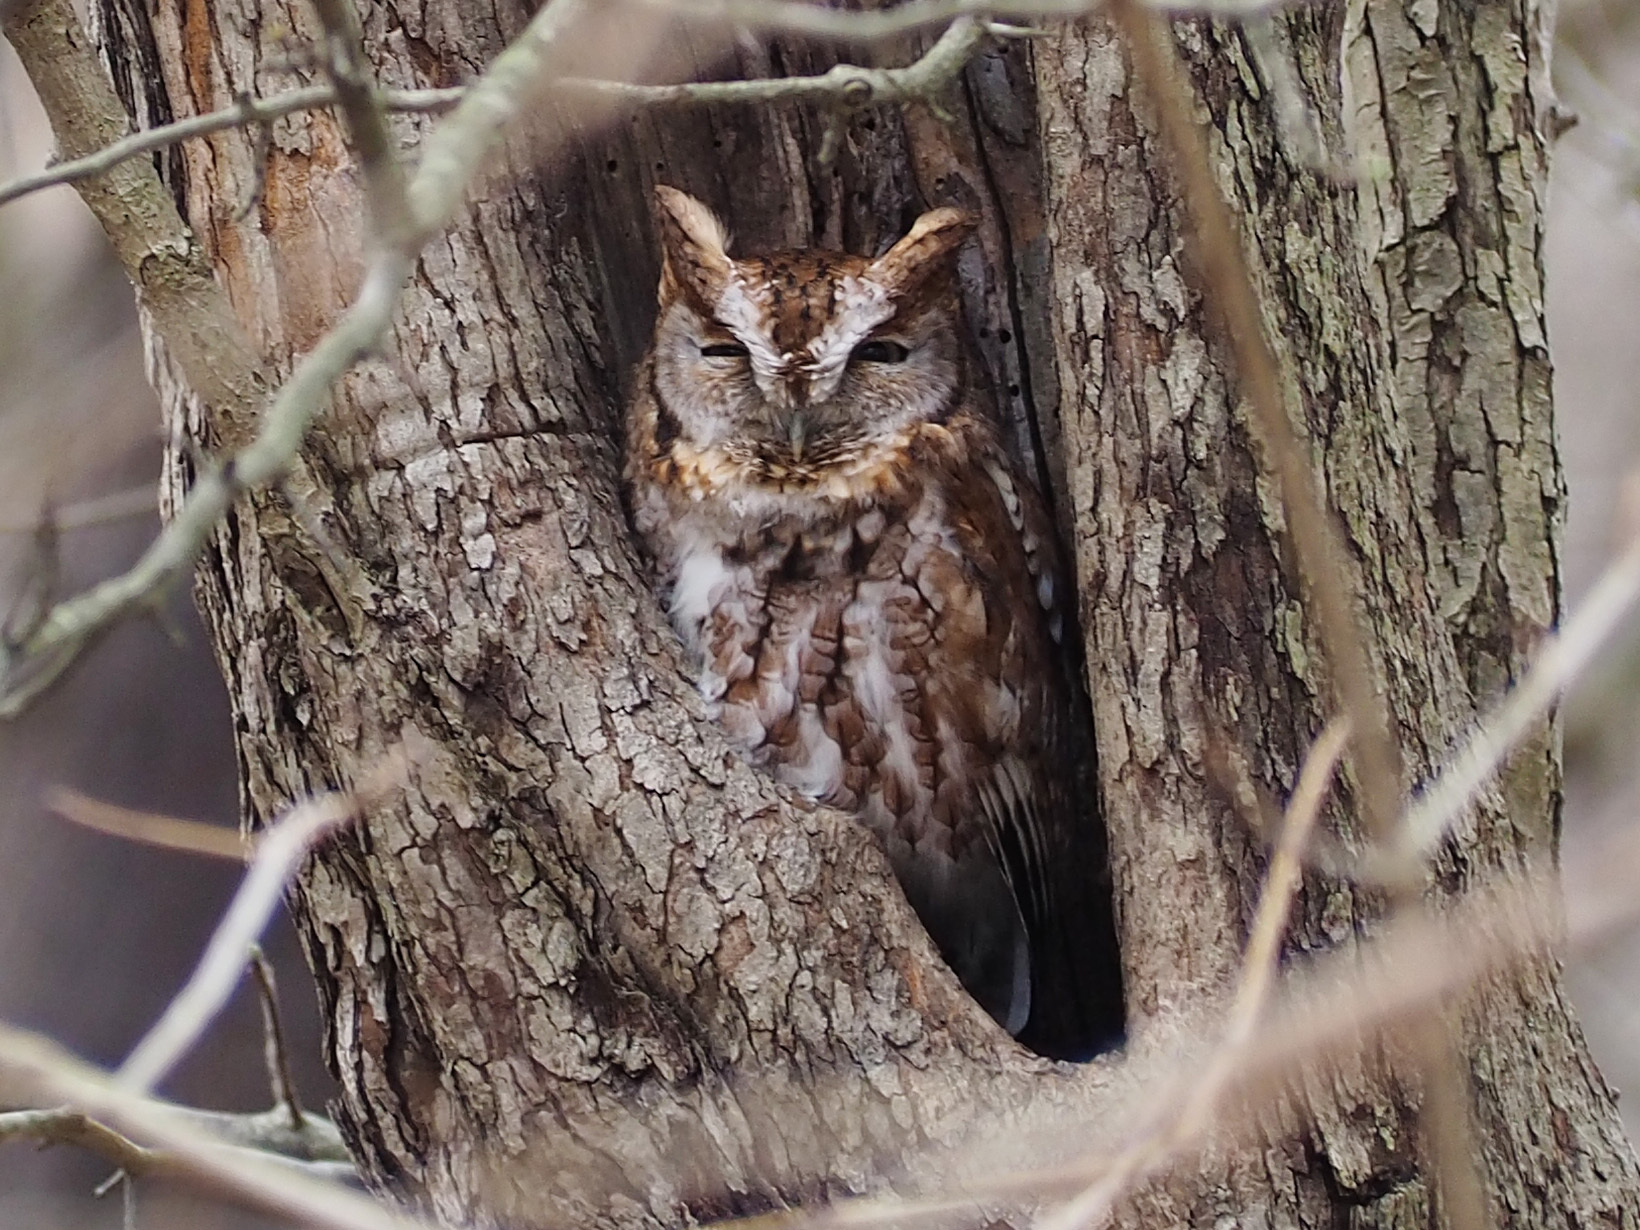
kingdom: Animalia
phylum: Chordata
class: Aves
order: Strigiformes
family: Strigidae
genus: Megascops
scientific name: Megascops asio
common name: Eastern screech-owl
